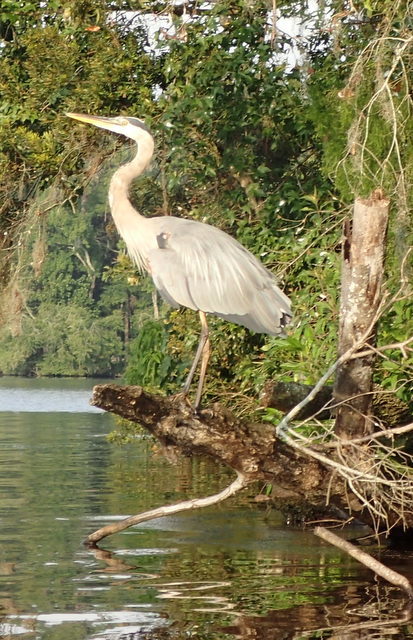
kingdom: Animalia
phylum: Chordata
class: Aves
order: Pelecaniformes
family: Ardeidae
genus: Ardea
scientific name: Ardea herodias
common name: Great blue heron
